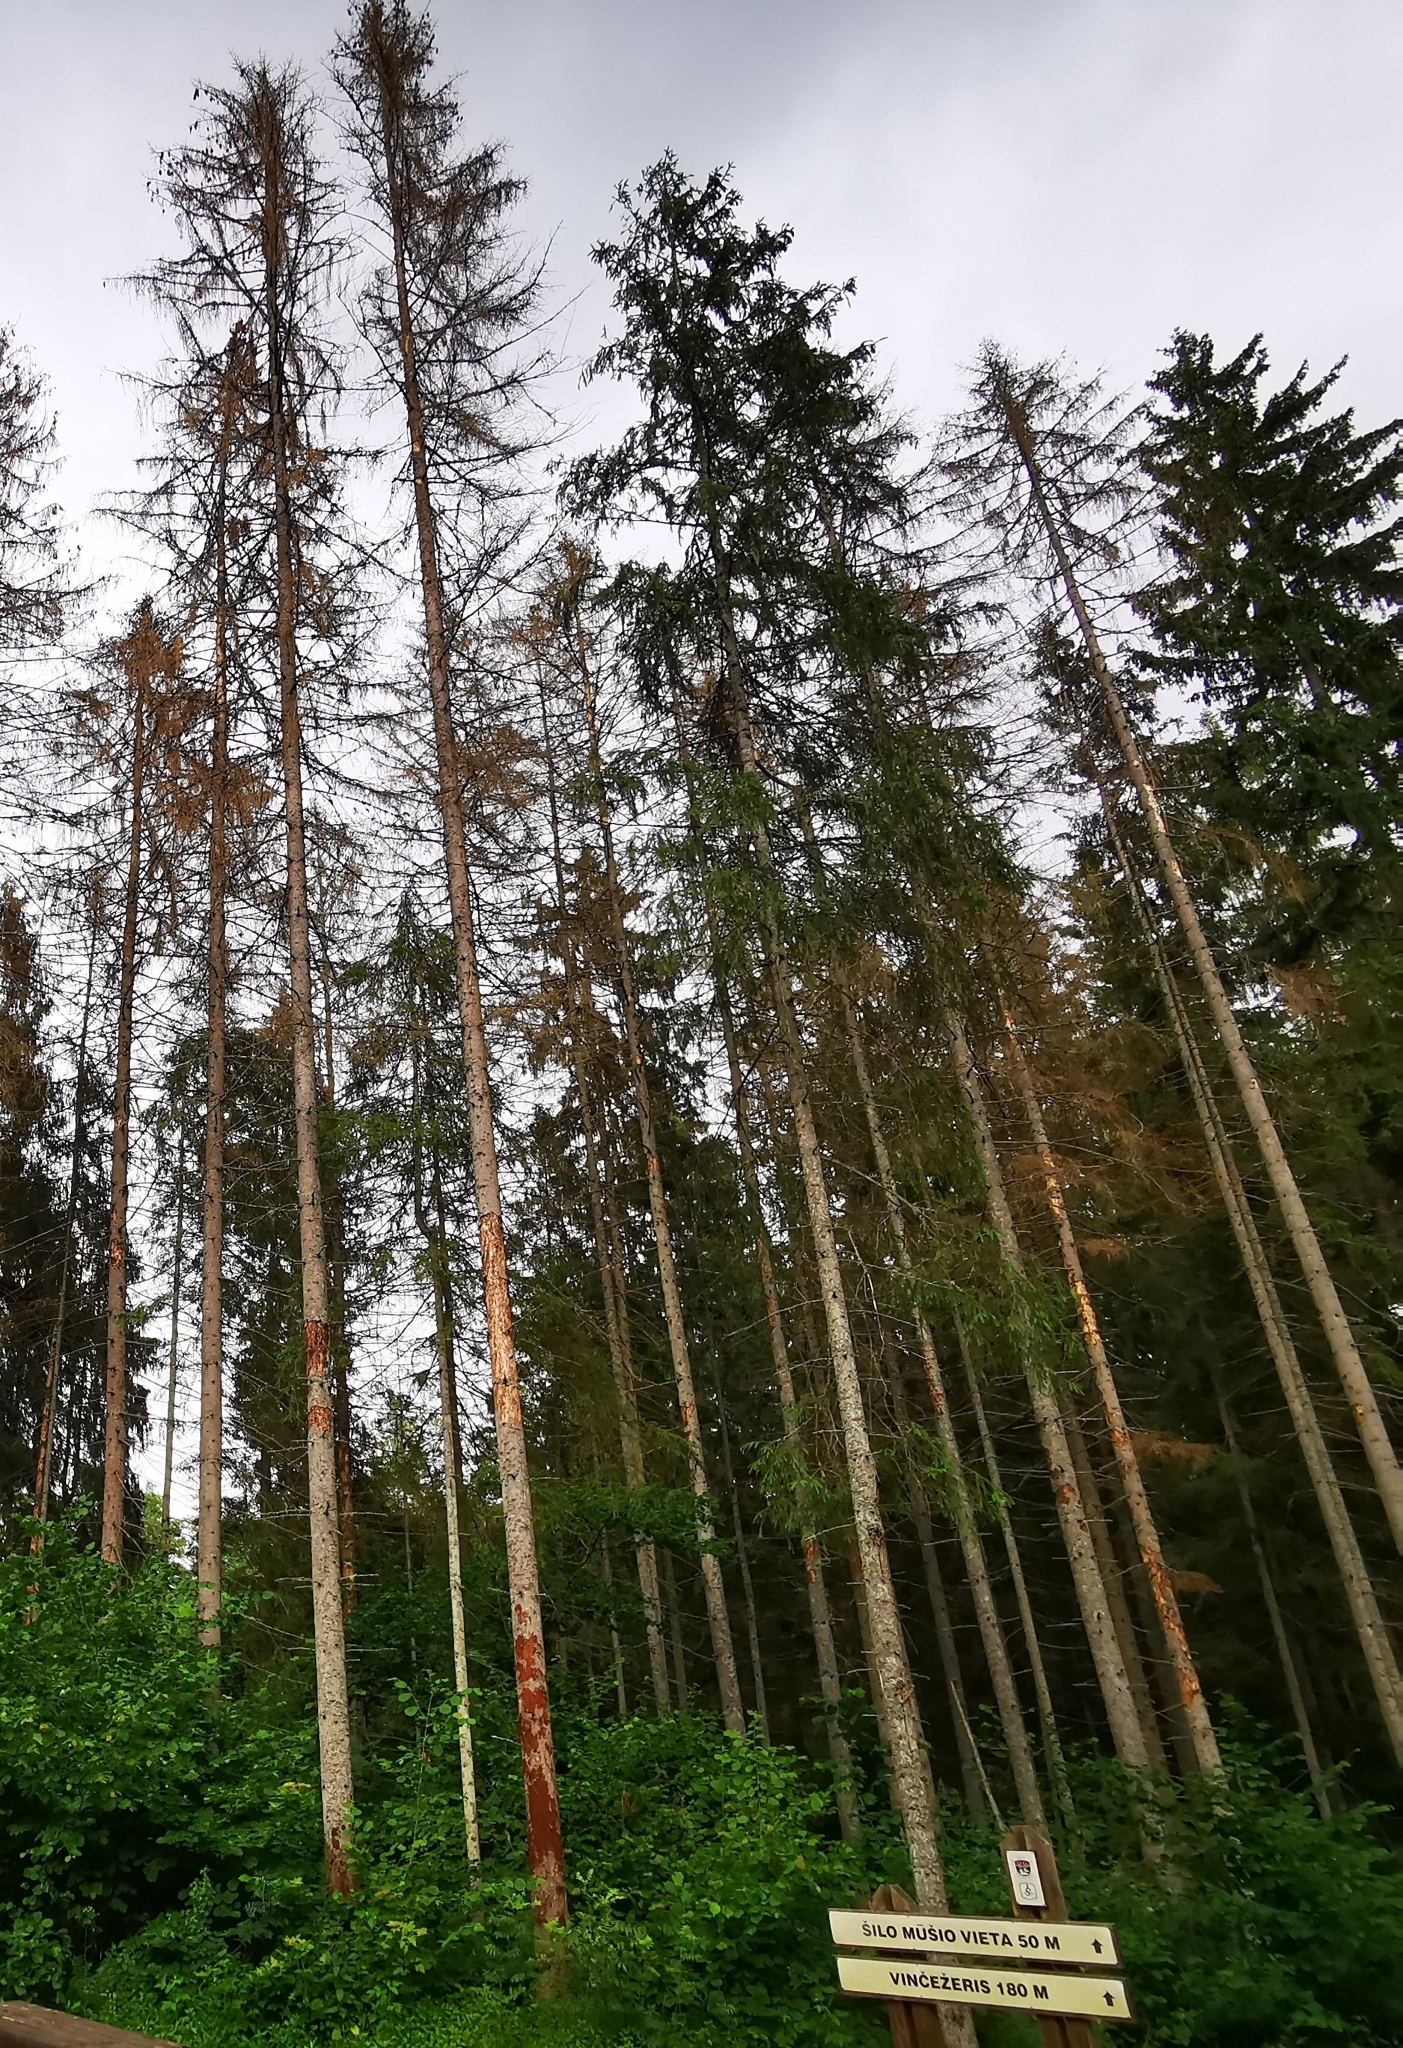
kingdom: Plantae
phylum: Tracheophyta
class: Pinopsida
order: Pinales
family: Pinaceae
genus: Picea
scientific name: Picea abies
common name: Norway spruce
